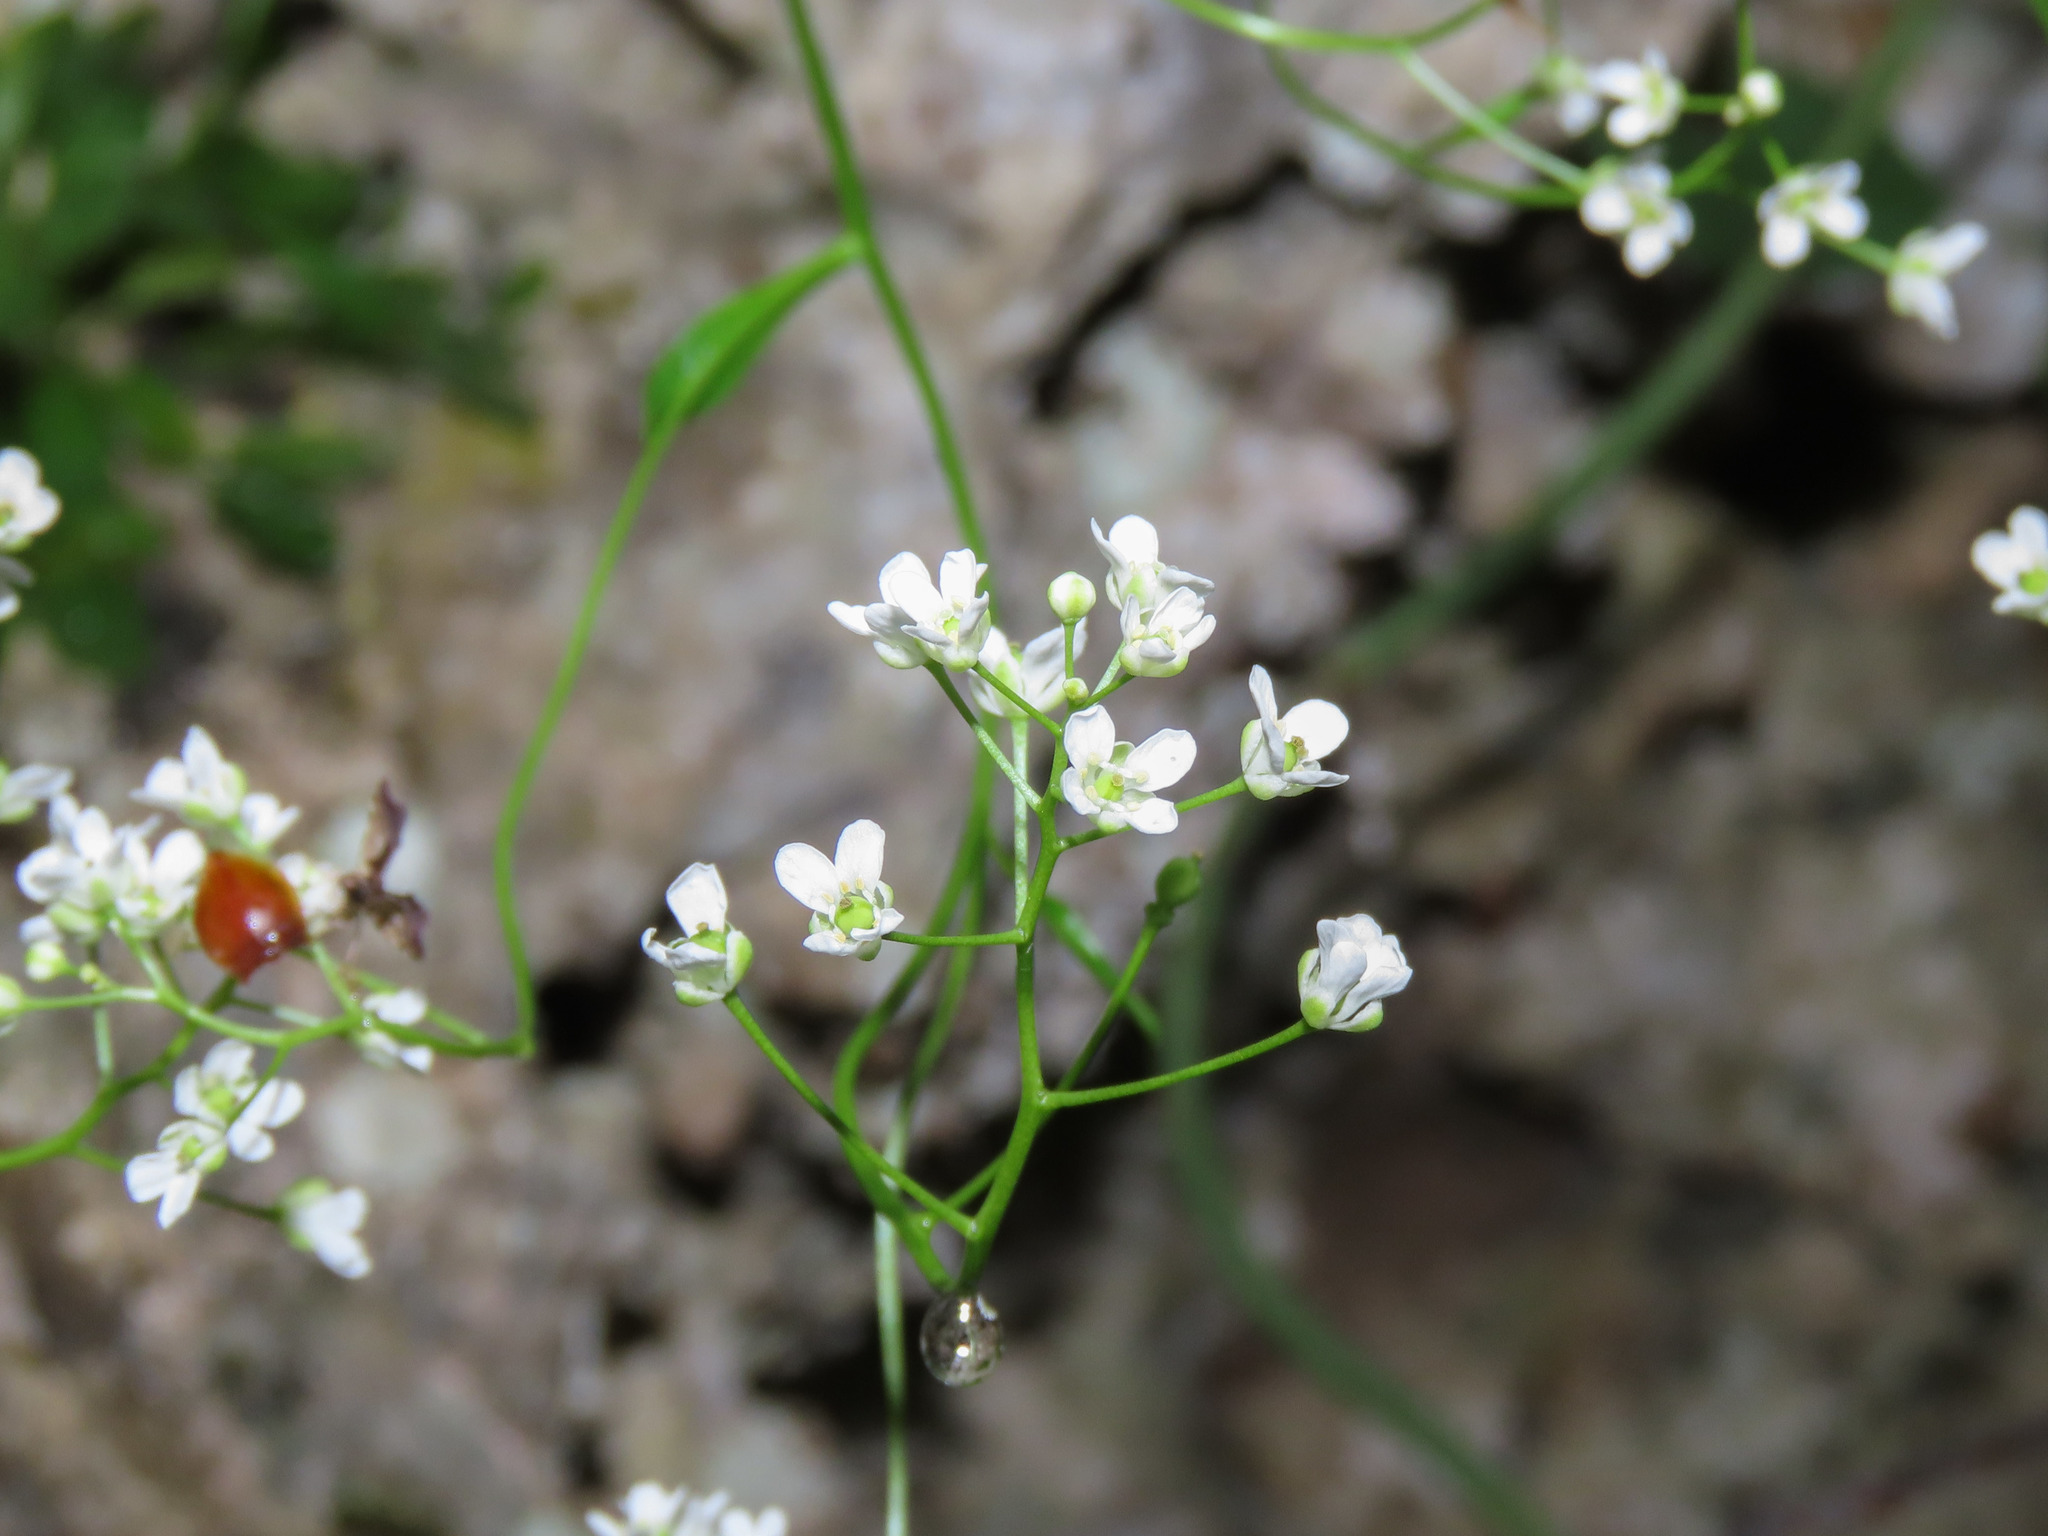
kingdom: Plantae
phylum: Tracheophyta
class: Magnoliopsida
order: Brassicales
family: Brassicaceae
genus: Kernera
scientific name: Kernera saxatilis
